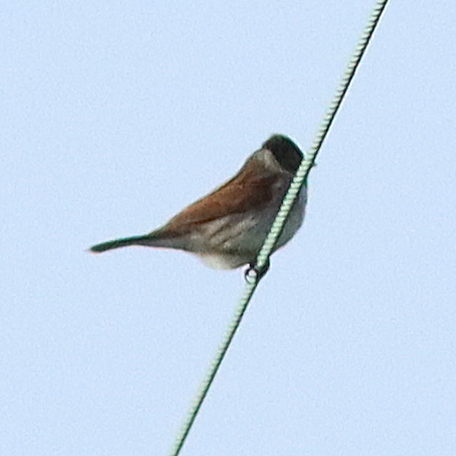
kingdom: Animalia
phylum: Chordata
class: Aves
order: Passeriformes
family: Emberizidae
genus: Emberiza
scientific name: Emberiza schoeniclus
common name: Reed bunting
